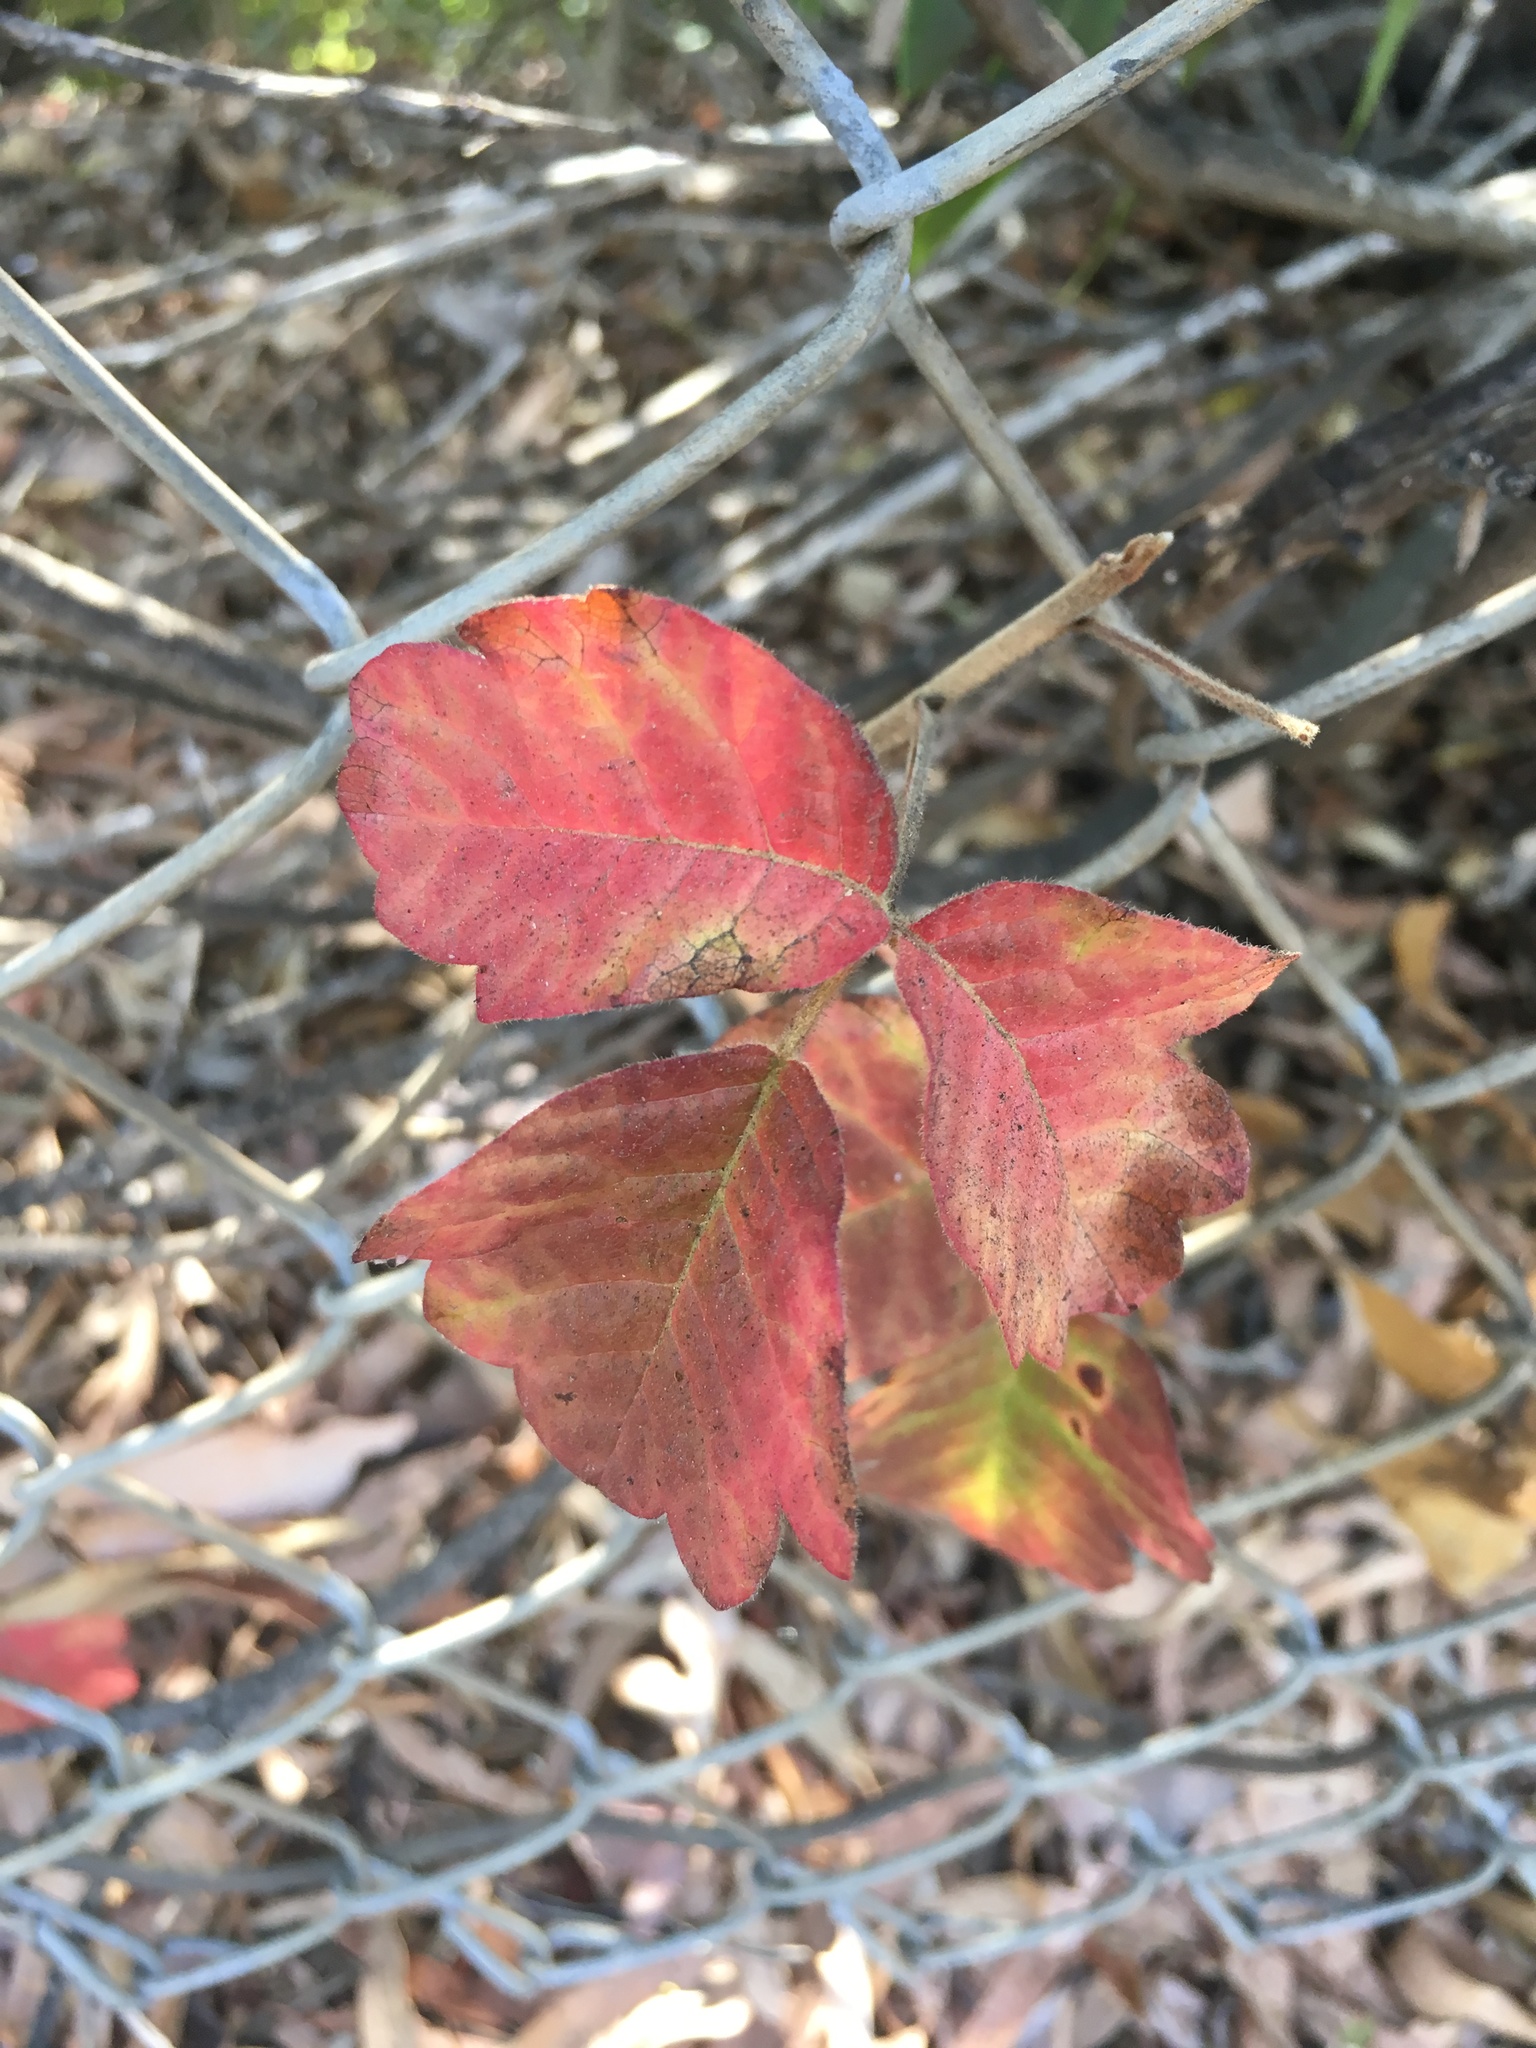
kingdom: Plantae
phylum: Tracheophyta
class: Magnoliopsida
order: Sapindales
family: Anacardiaceae
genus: Toxicodendron
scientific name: Toxicodendron diversilobum
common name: Pacific poison-oak
